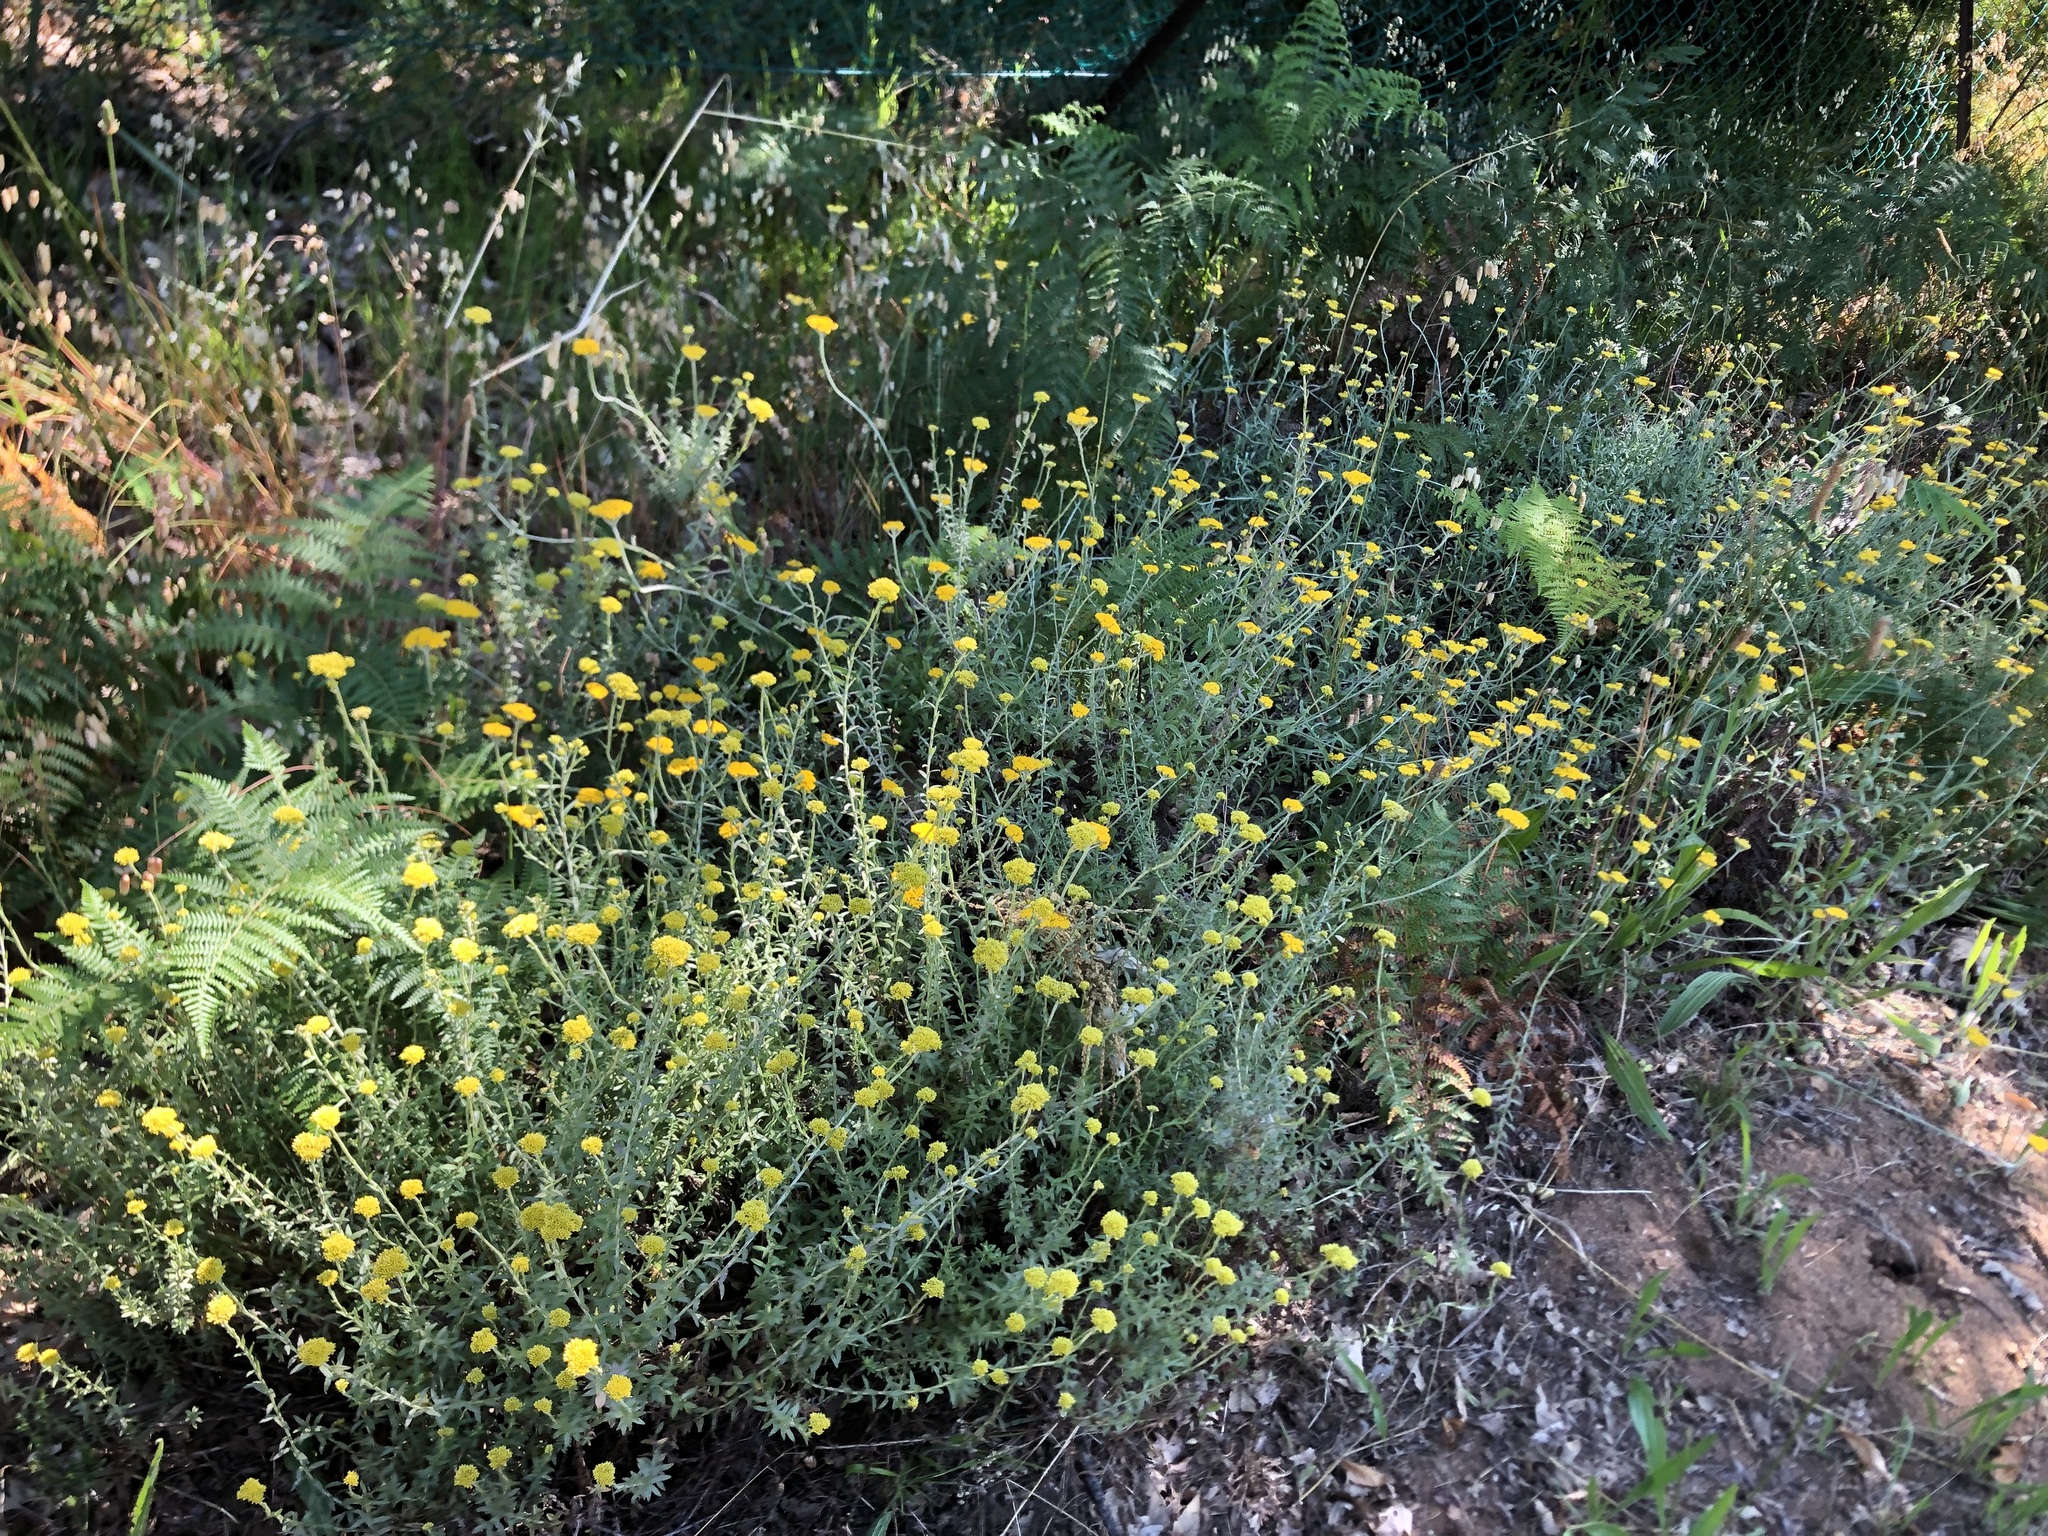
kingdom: Plantae
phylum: Tracheophyta
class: Magnoliopsida
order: Asterales
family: Asteraceae
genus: Helichrysum
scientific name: Helichrysum cymosum
